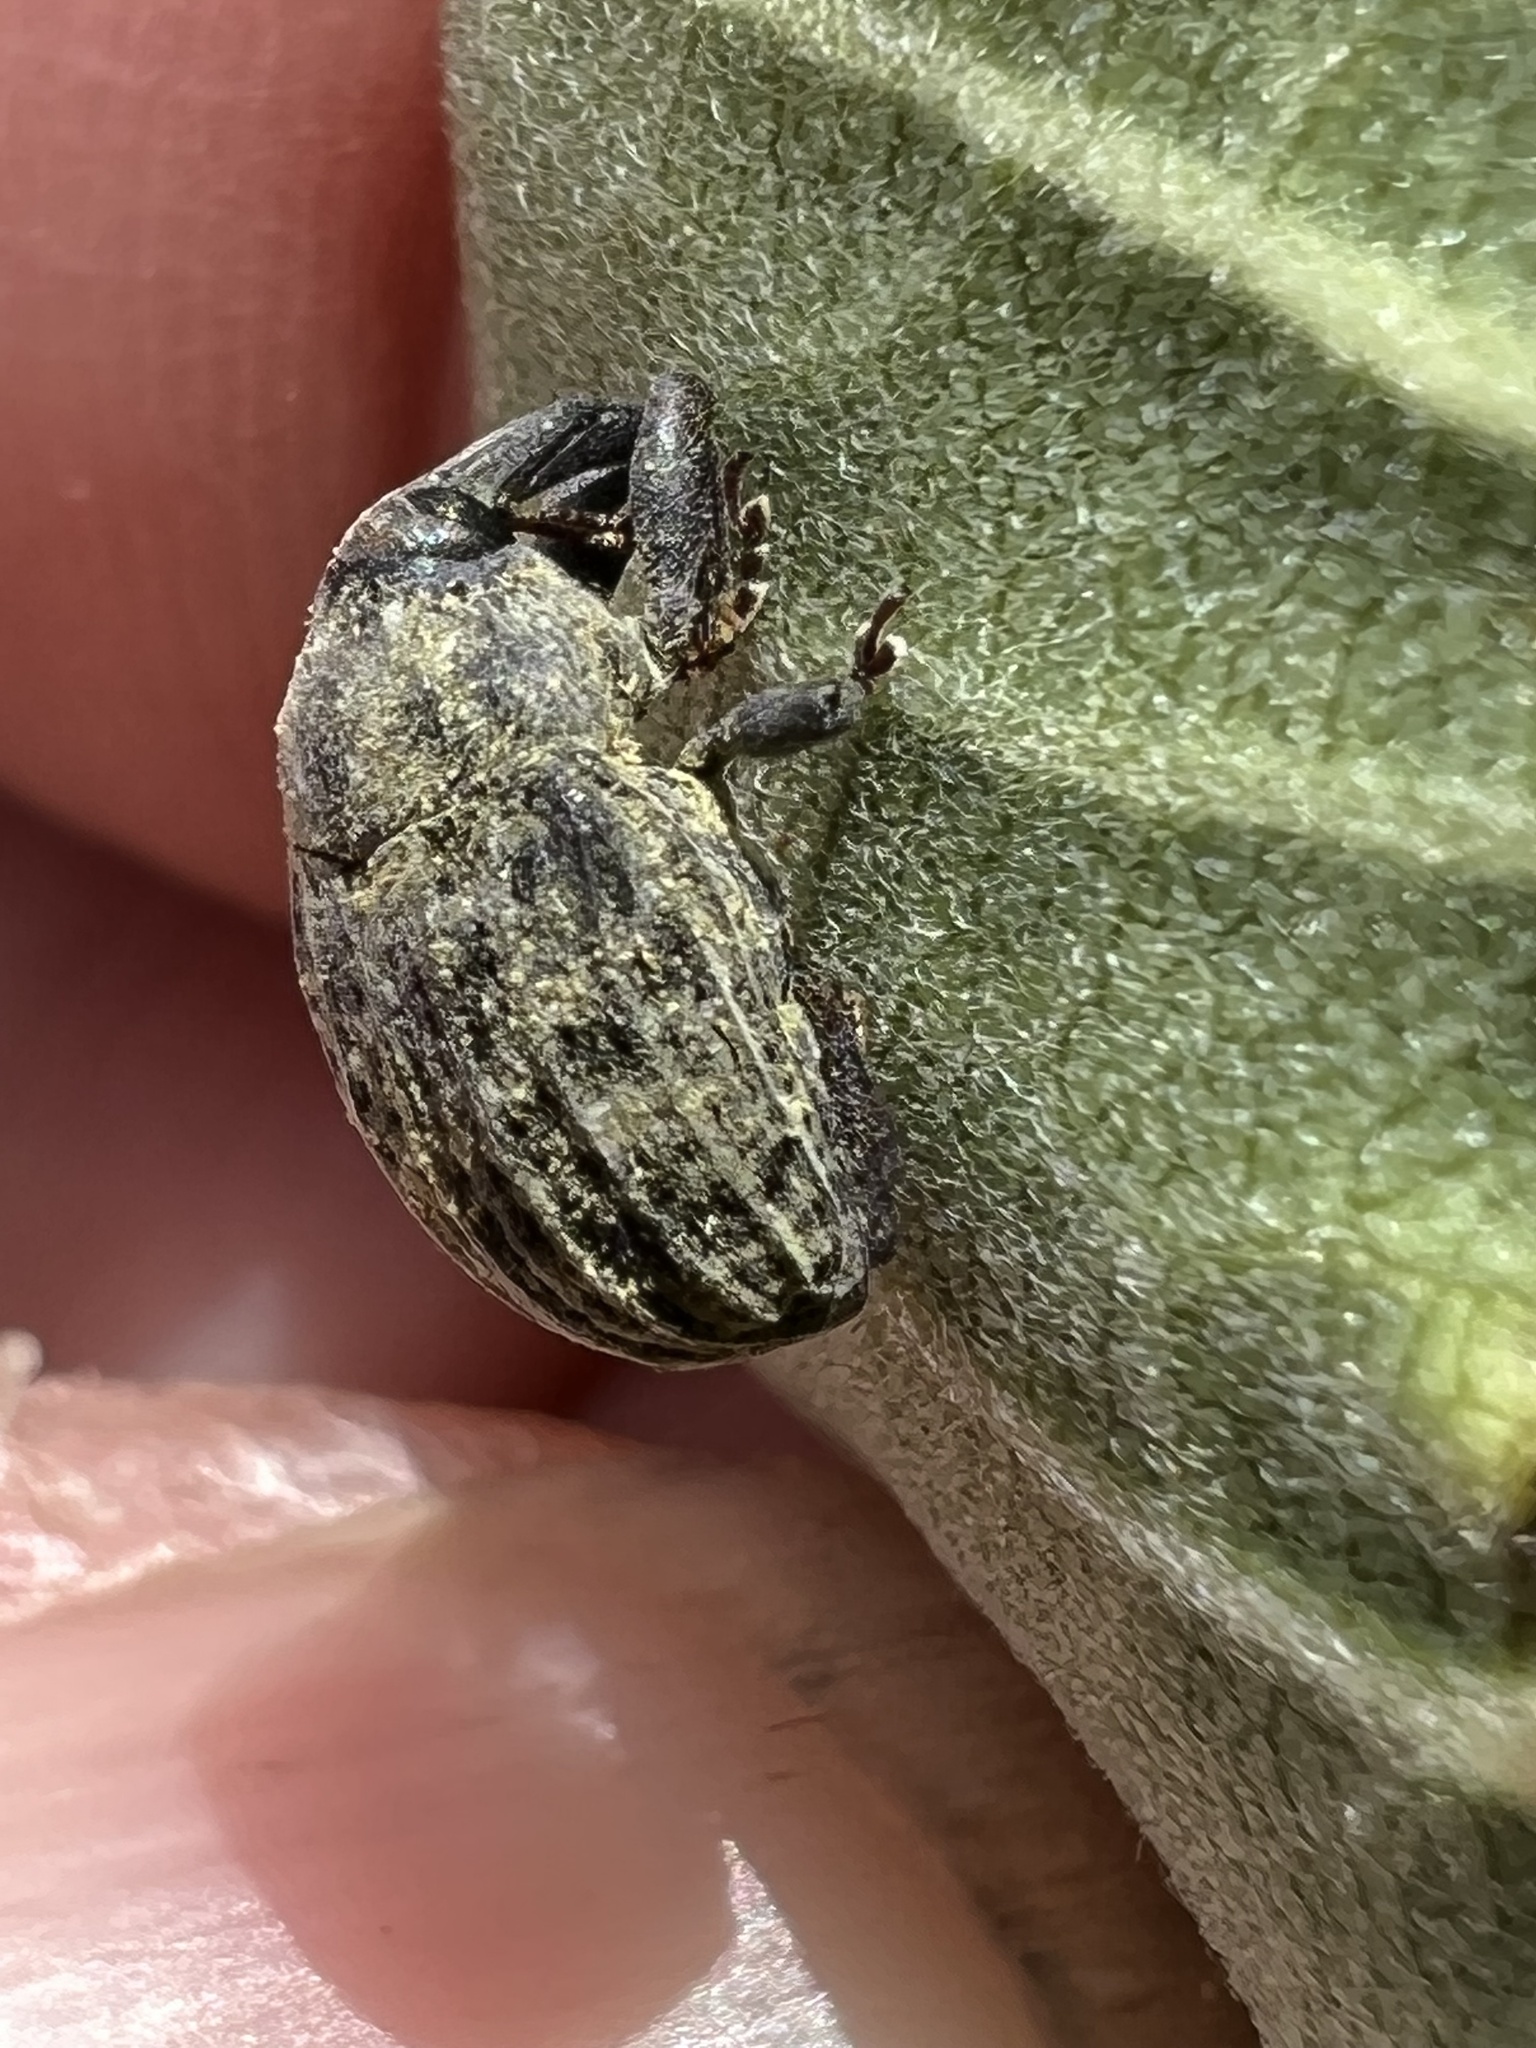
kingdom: Animalia
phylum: Arthropoda
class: Insecta
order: Coleoptera
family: Curculionidae
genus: Rhyssomatus
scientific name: Rhyssomatus lineaticollis
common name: Milkweed stem weevil
